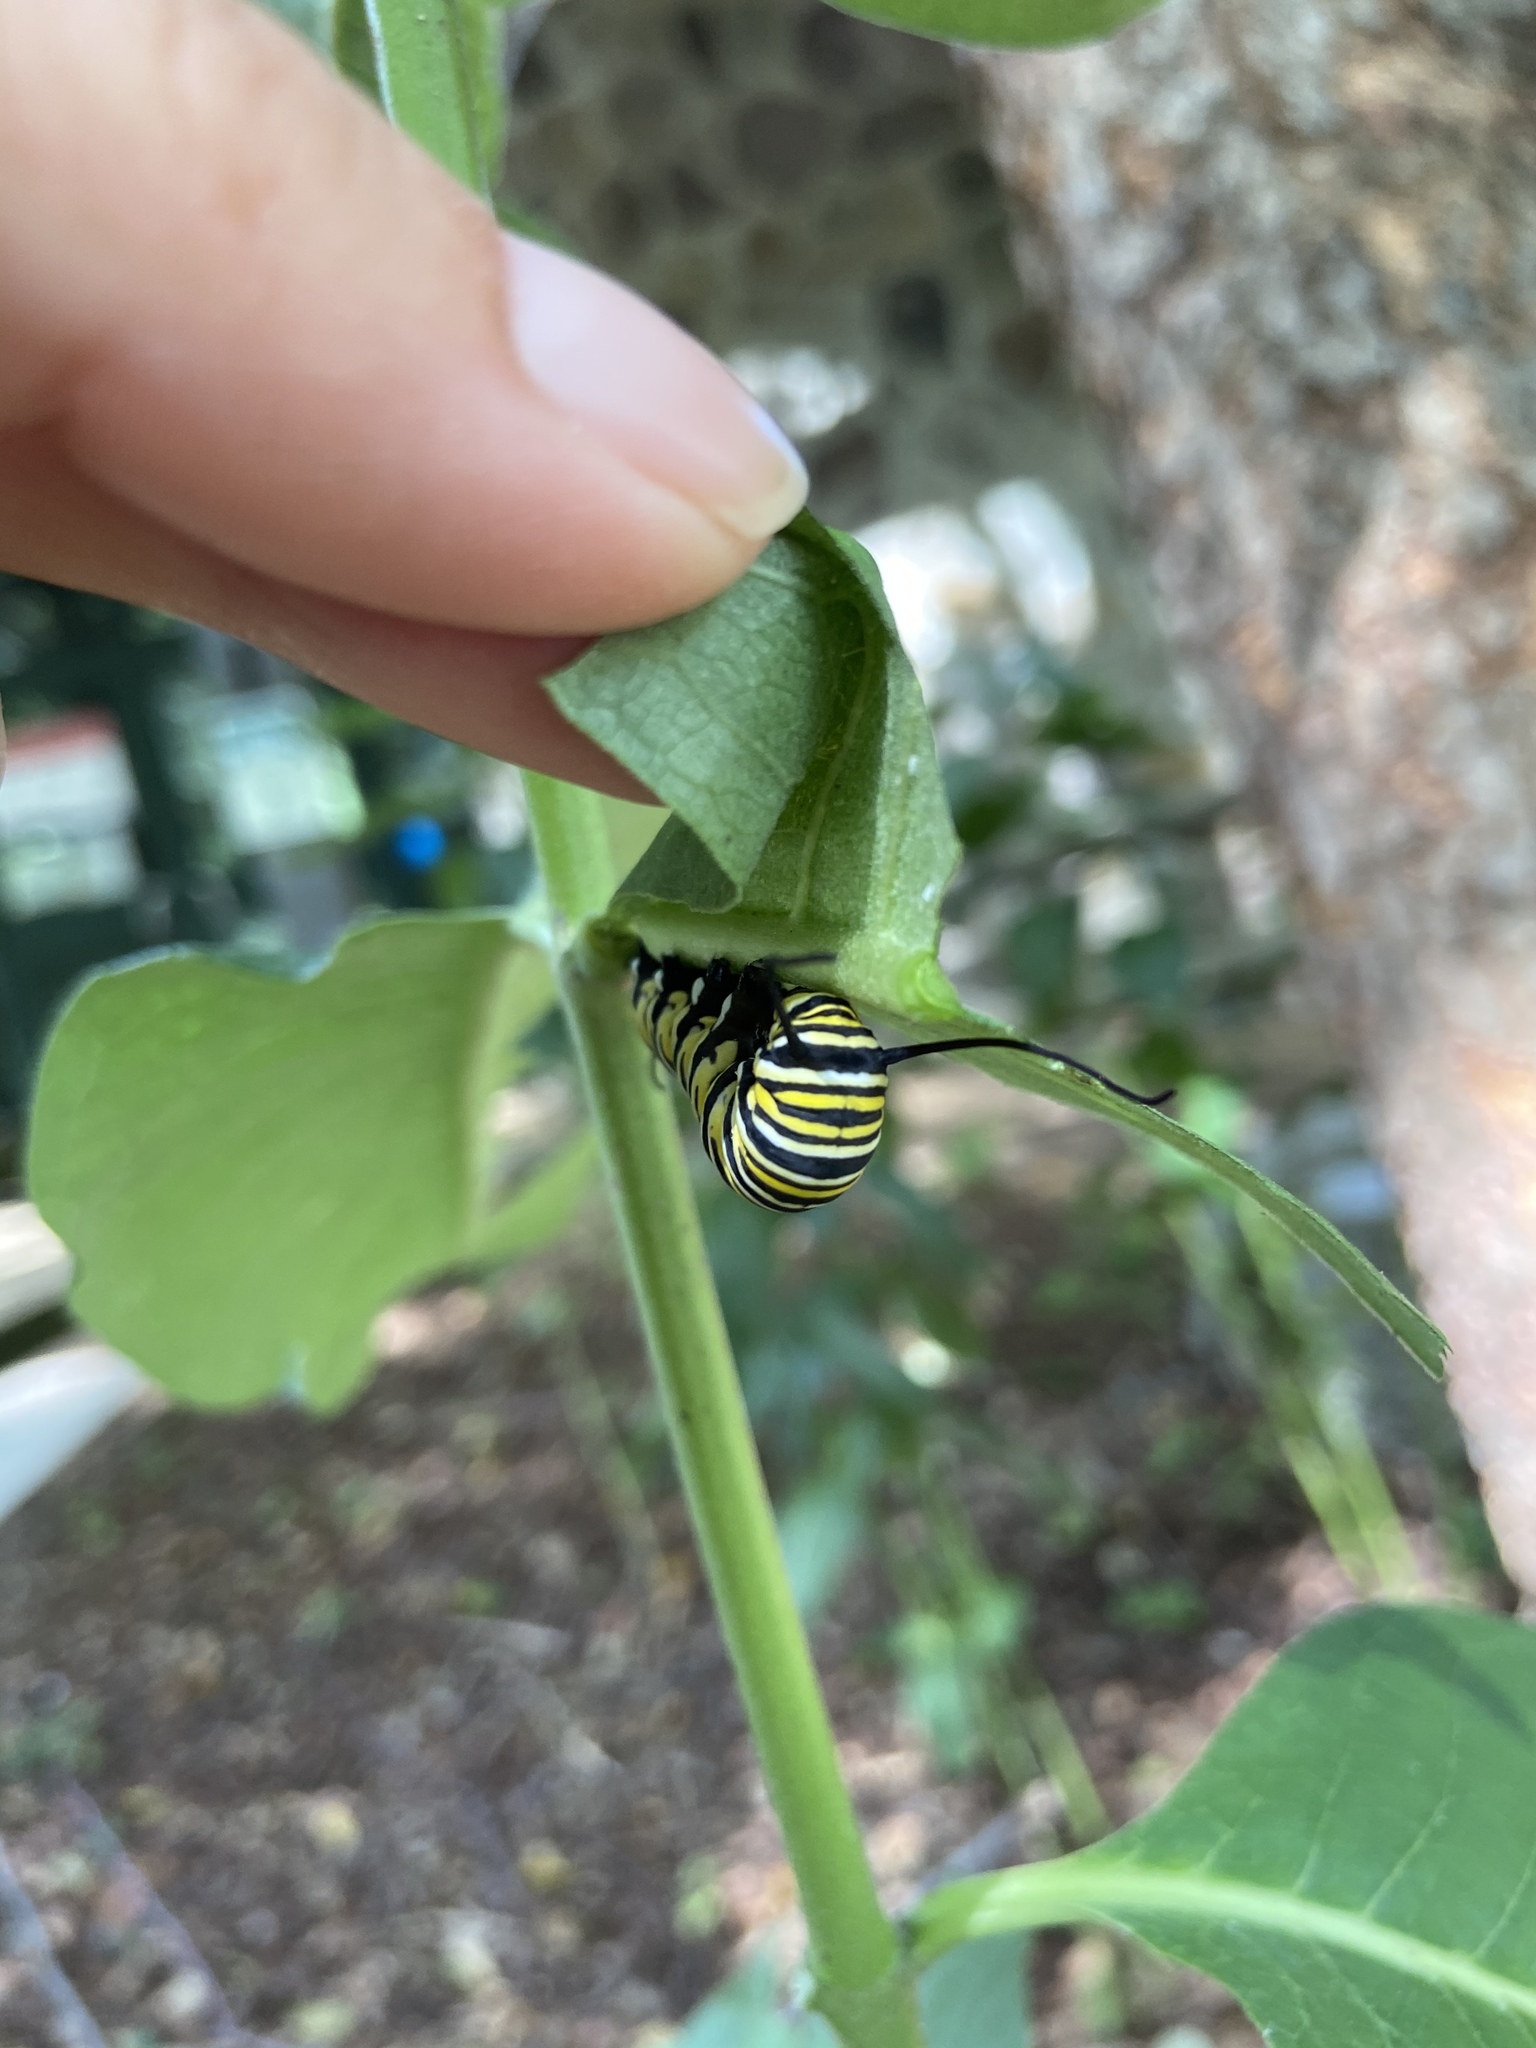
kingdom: Animalia
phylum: Arthropoda
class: Insecta
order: Lepidoptera
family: Nymphalidae
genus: Danaus
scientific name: Danaus plexippus
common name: Monarch
